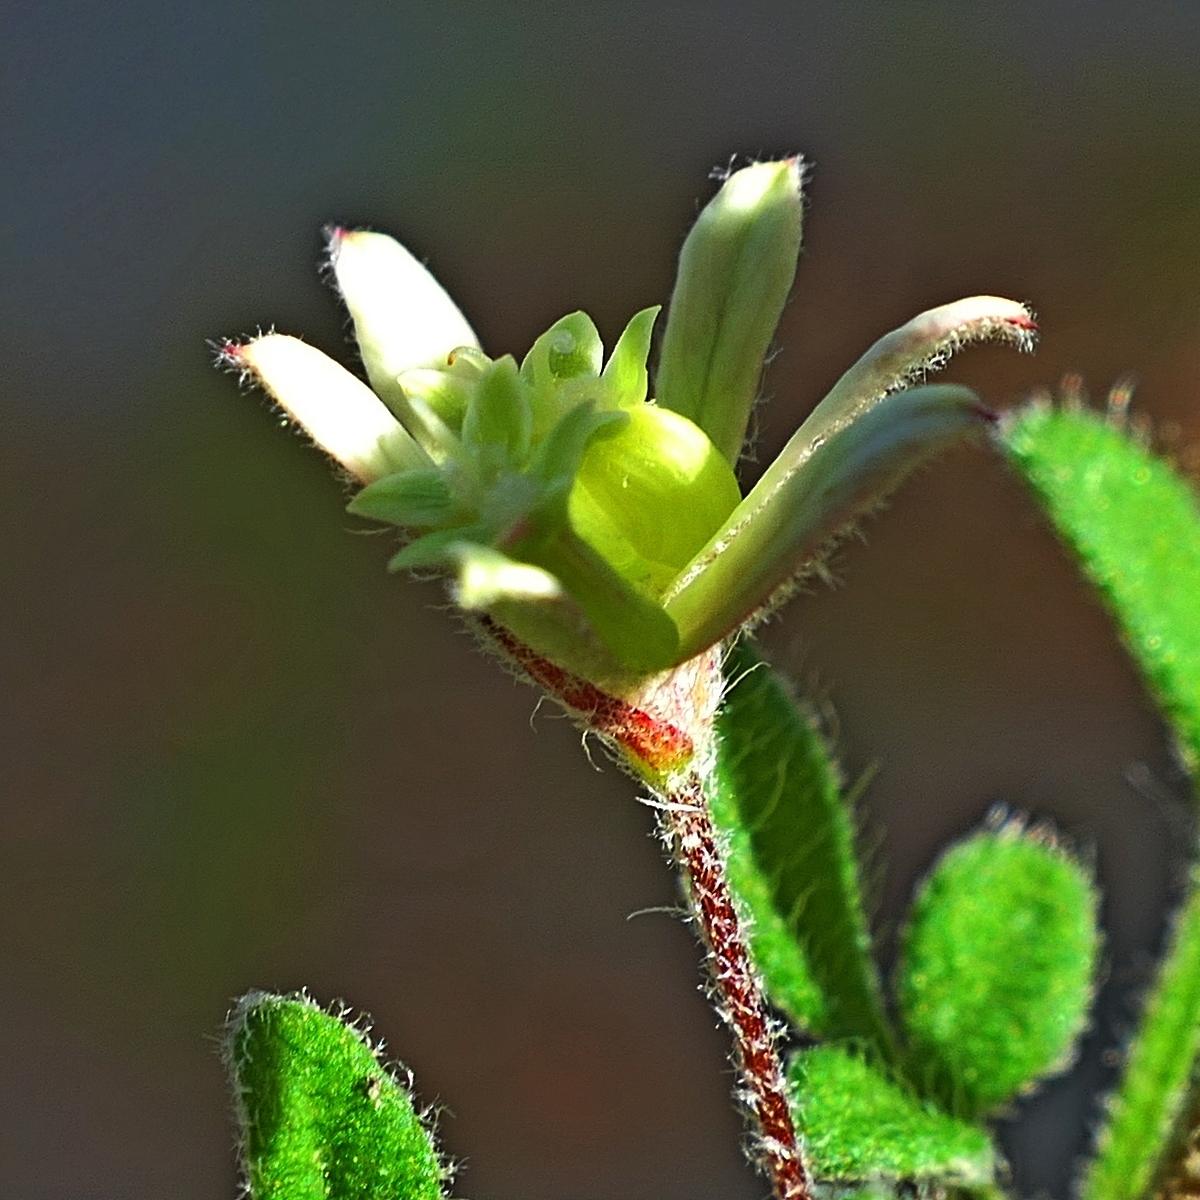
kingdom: Plantae
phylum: Tracheophyta
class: Magnoliopsida
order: Apiales
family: Apiaceae
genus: Xanthosia
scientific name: Xanthosia pilosa
